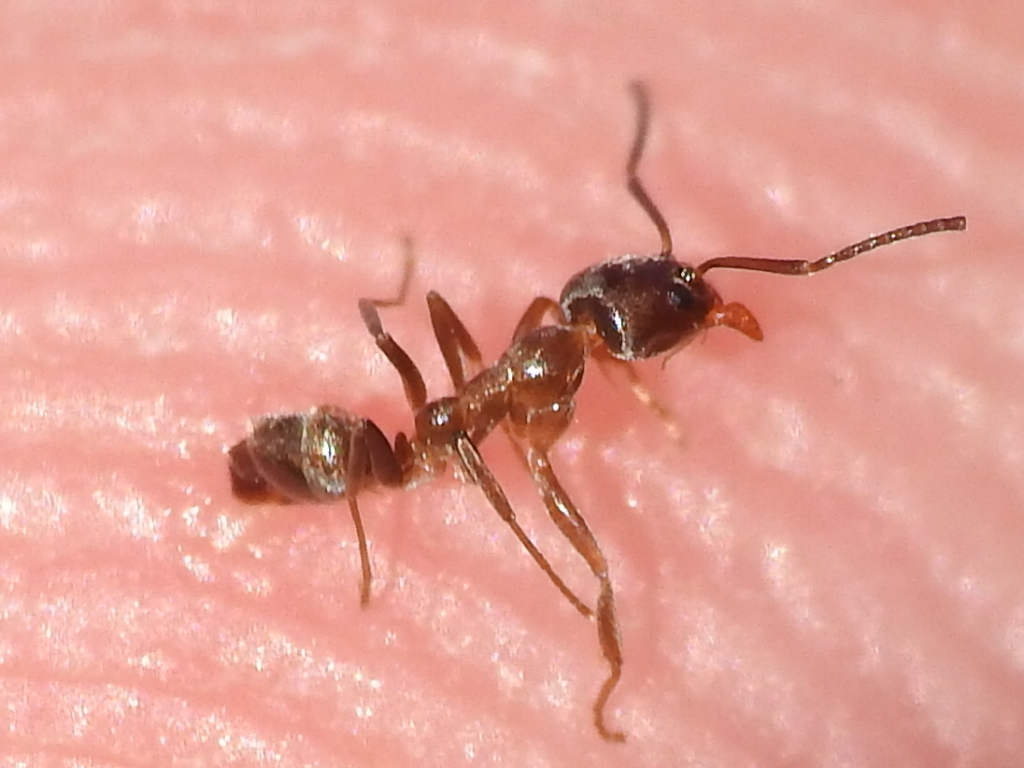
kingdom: Animalia
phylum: Arthropoda
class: Insecta
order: Hymenoptera
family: Formicidae
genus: Linepithema
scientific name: Linepithema humile
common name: Argentine ant
